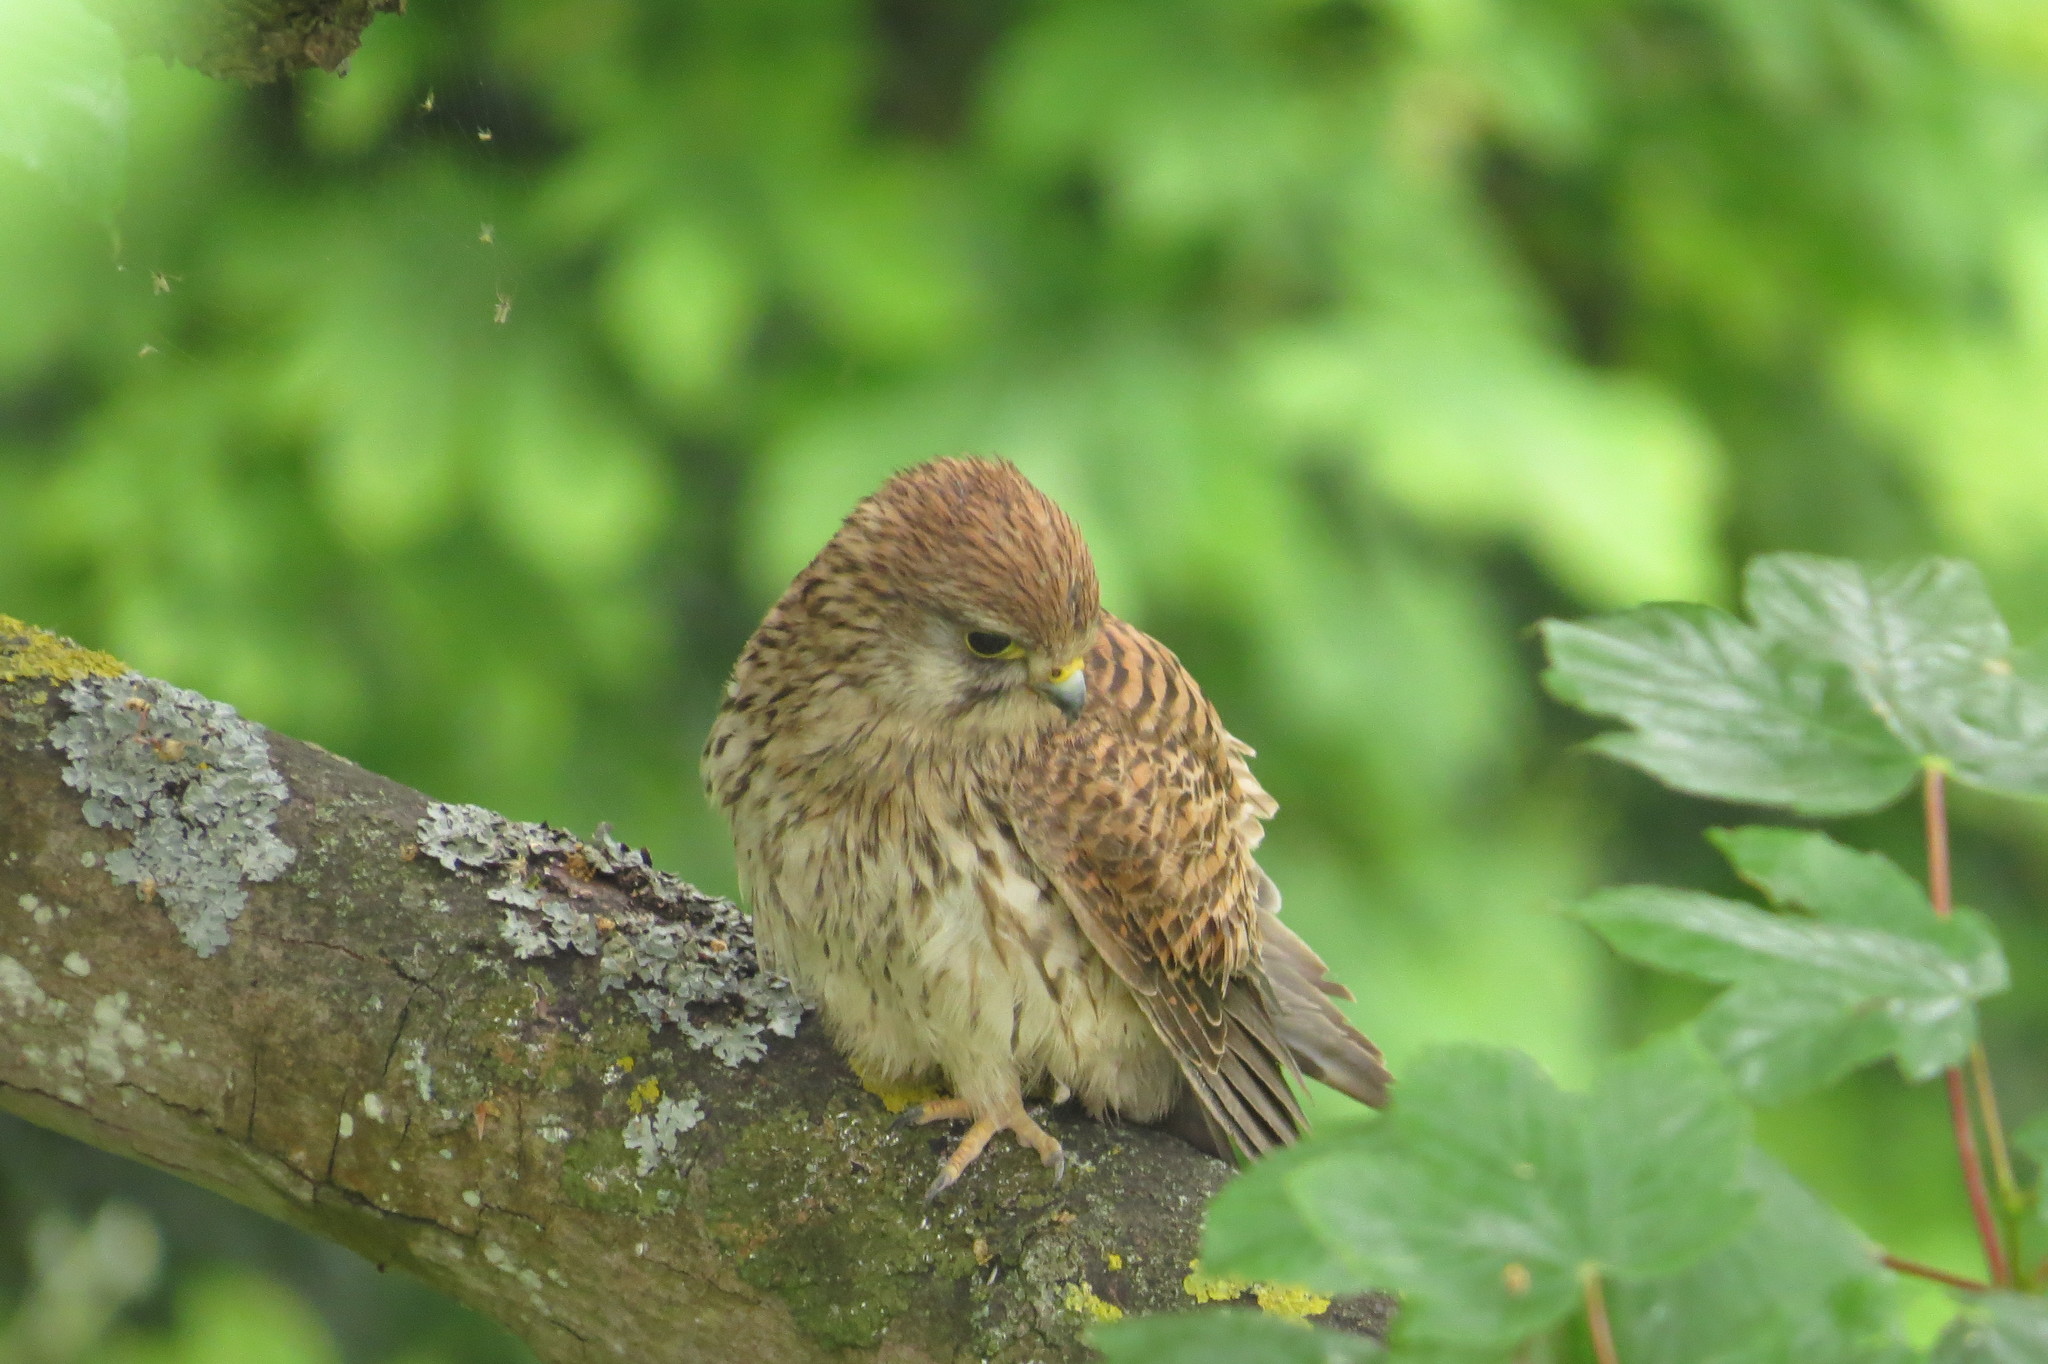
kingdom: Animalia
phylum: Chordata
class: Aves
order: Falconiformes
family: Falconidae
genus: Falco
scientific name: Falco tinnunculus
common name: Common kestrel
